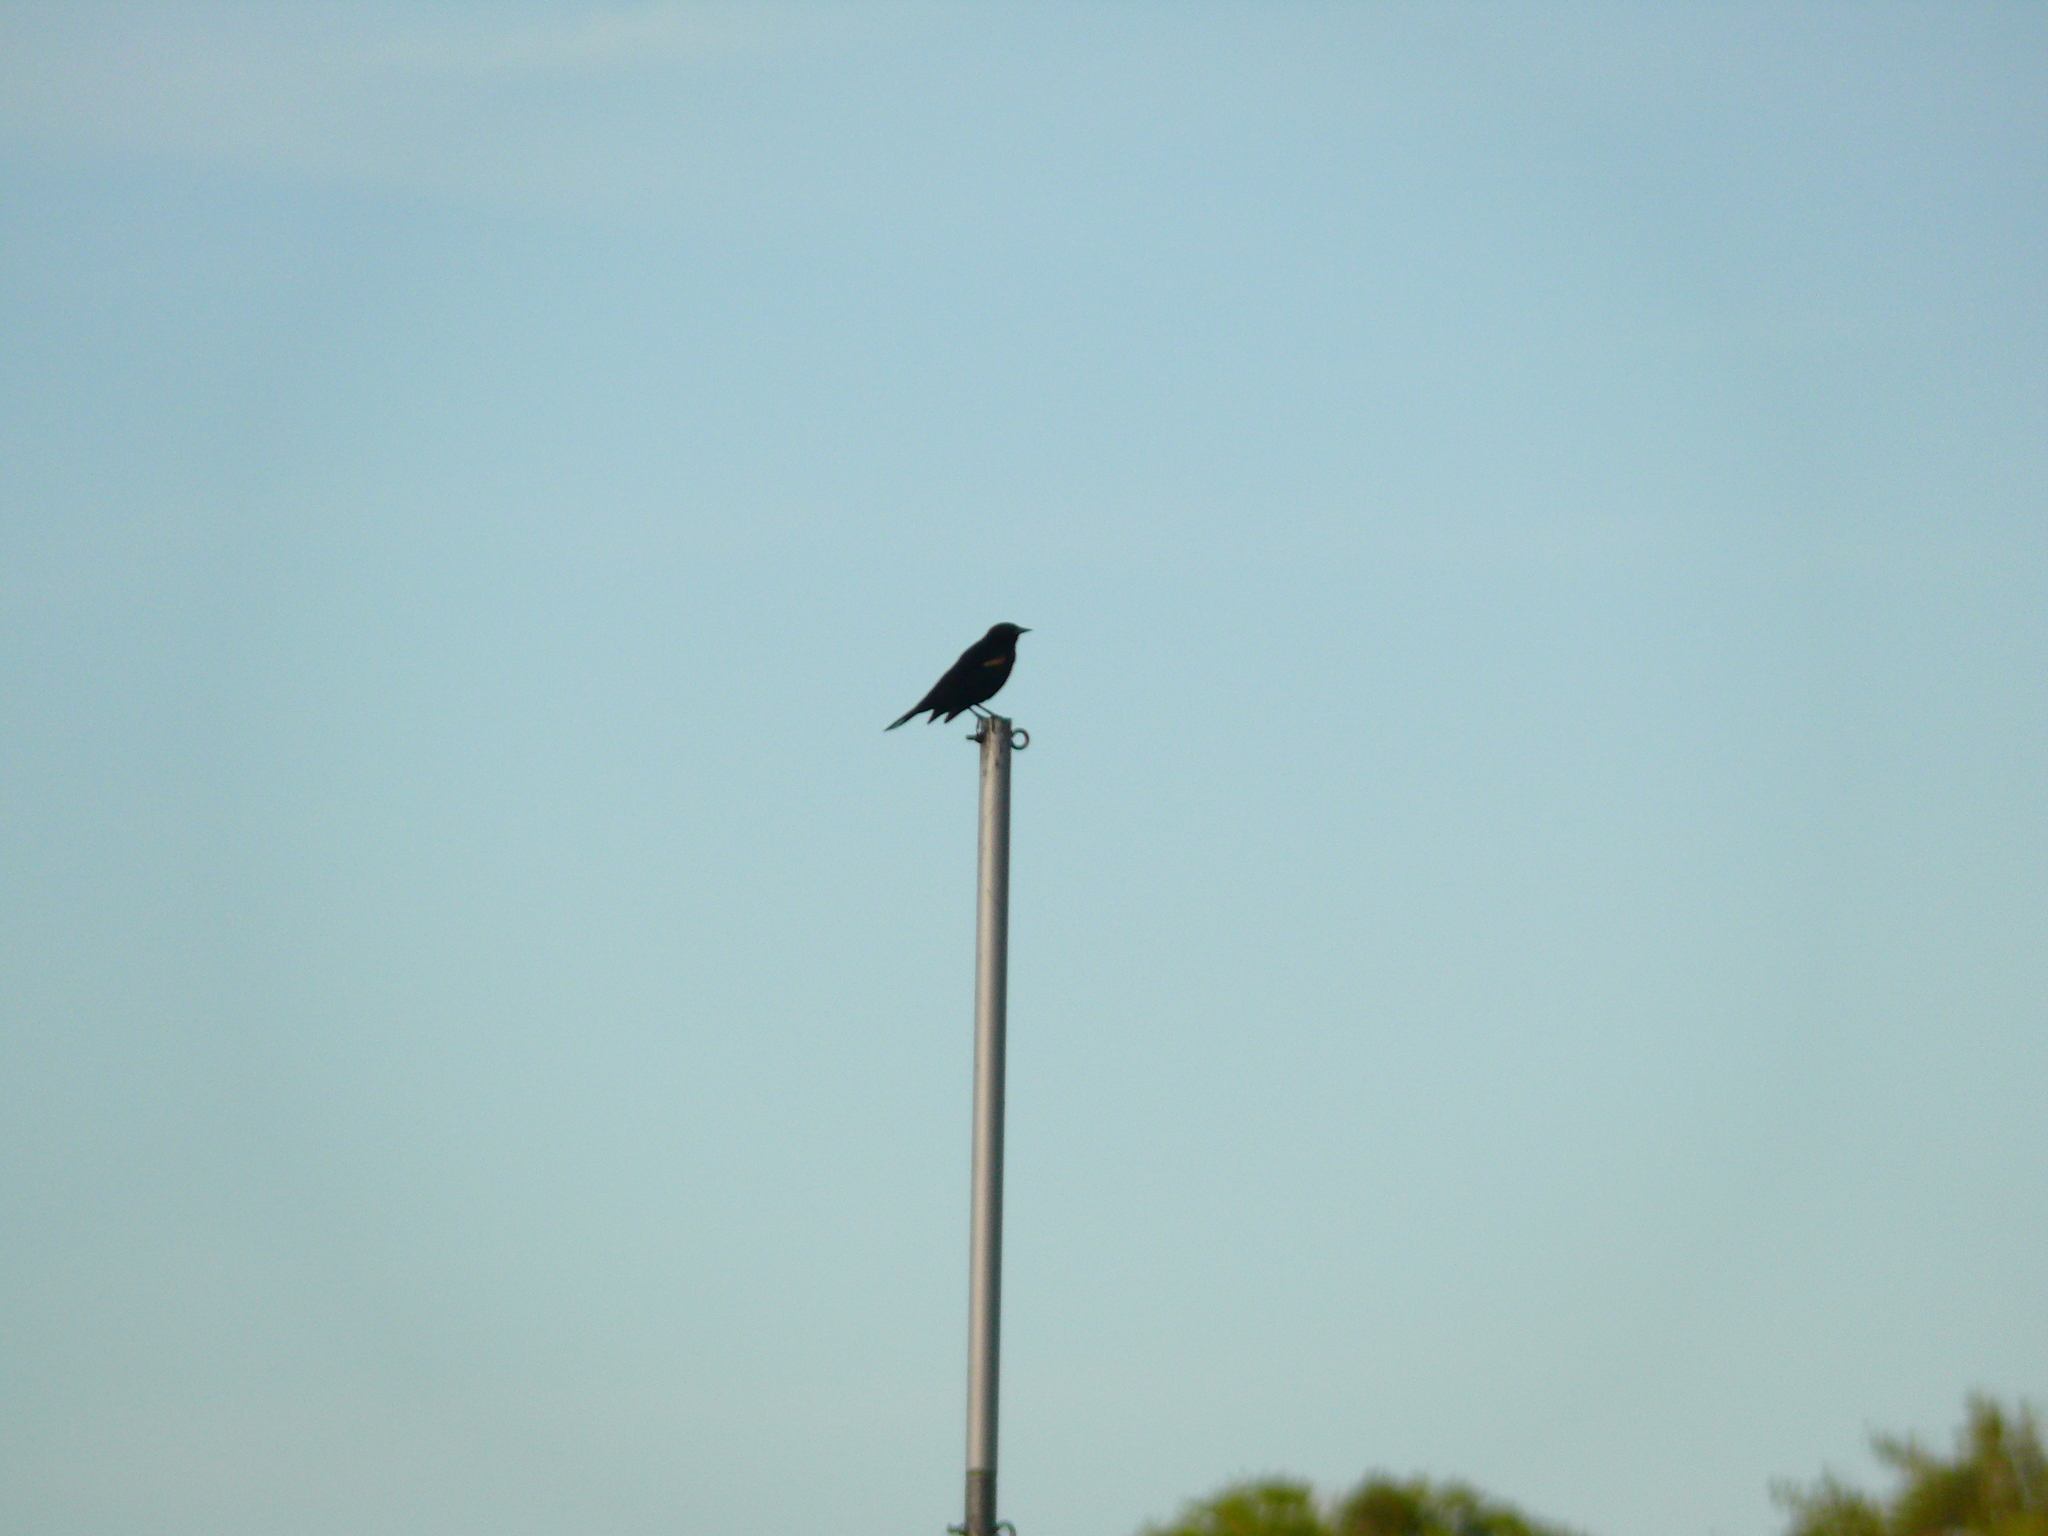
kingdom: Animalia
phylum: Chordata
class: Aves
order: Passeriformes
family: Icteridae
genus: Agelaius
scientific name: Agelaius phoeniceus
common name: Red-winged blackbird
